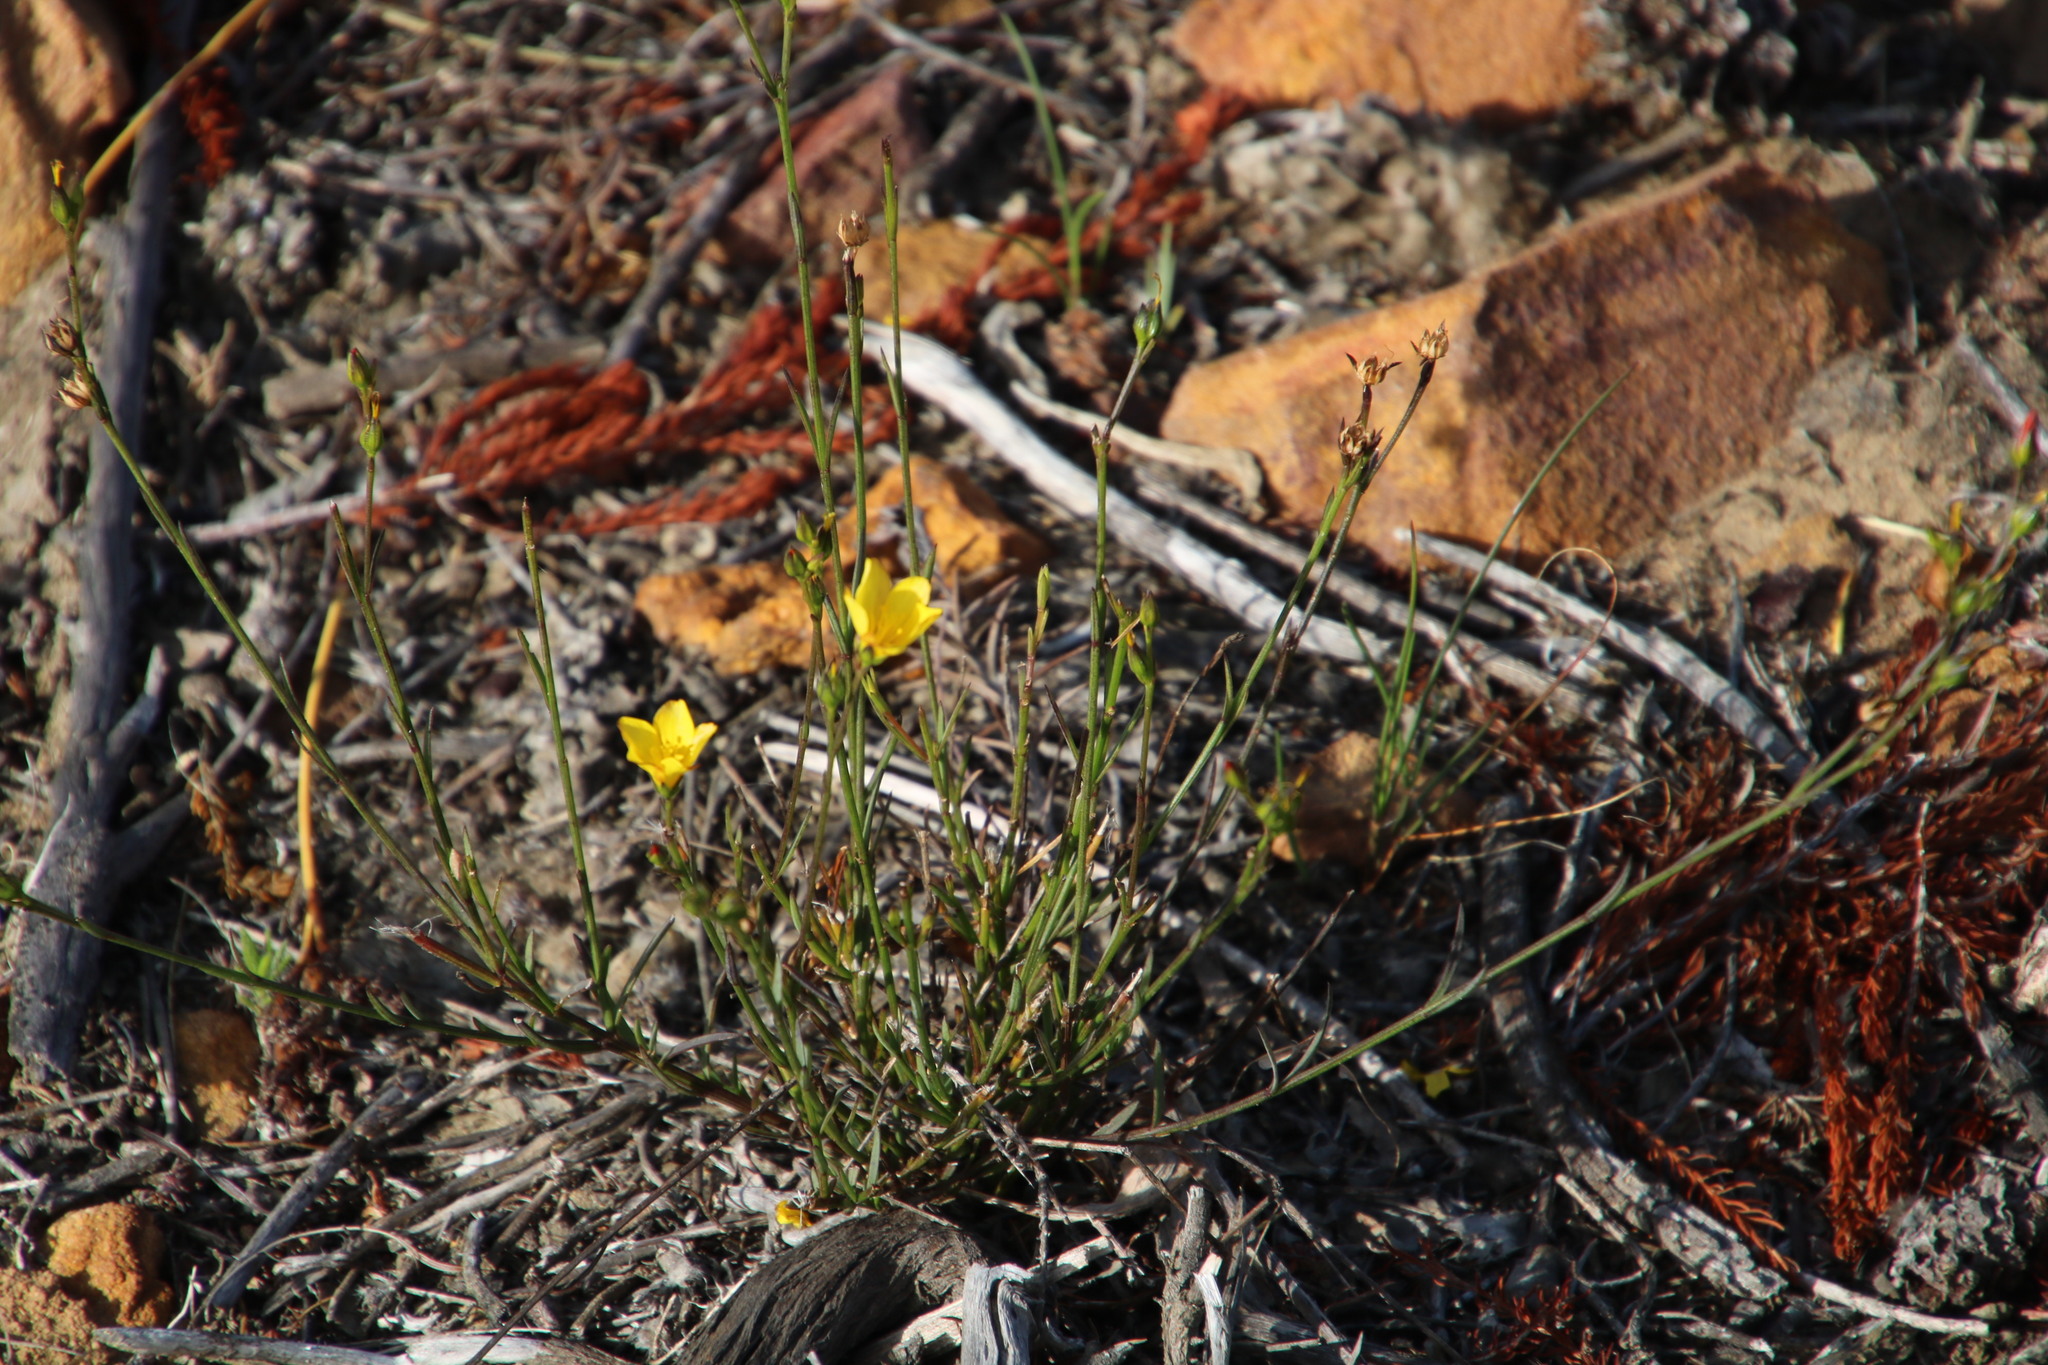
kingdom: Plantae
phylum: Tracheophyta
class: Magnoliopsida
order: Malpighiales
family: Linaceae
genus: Linum
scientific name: Linum africanum
